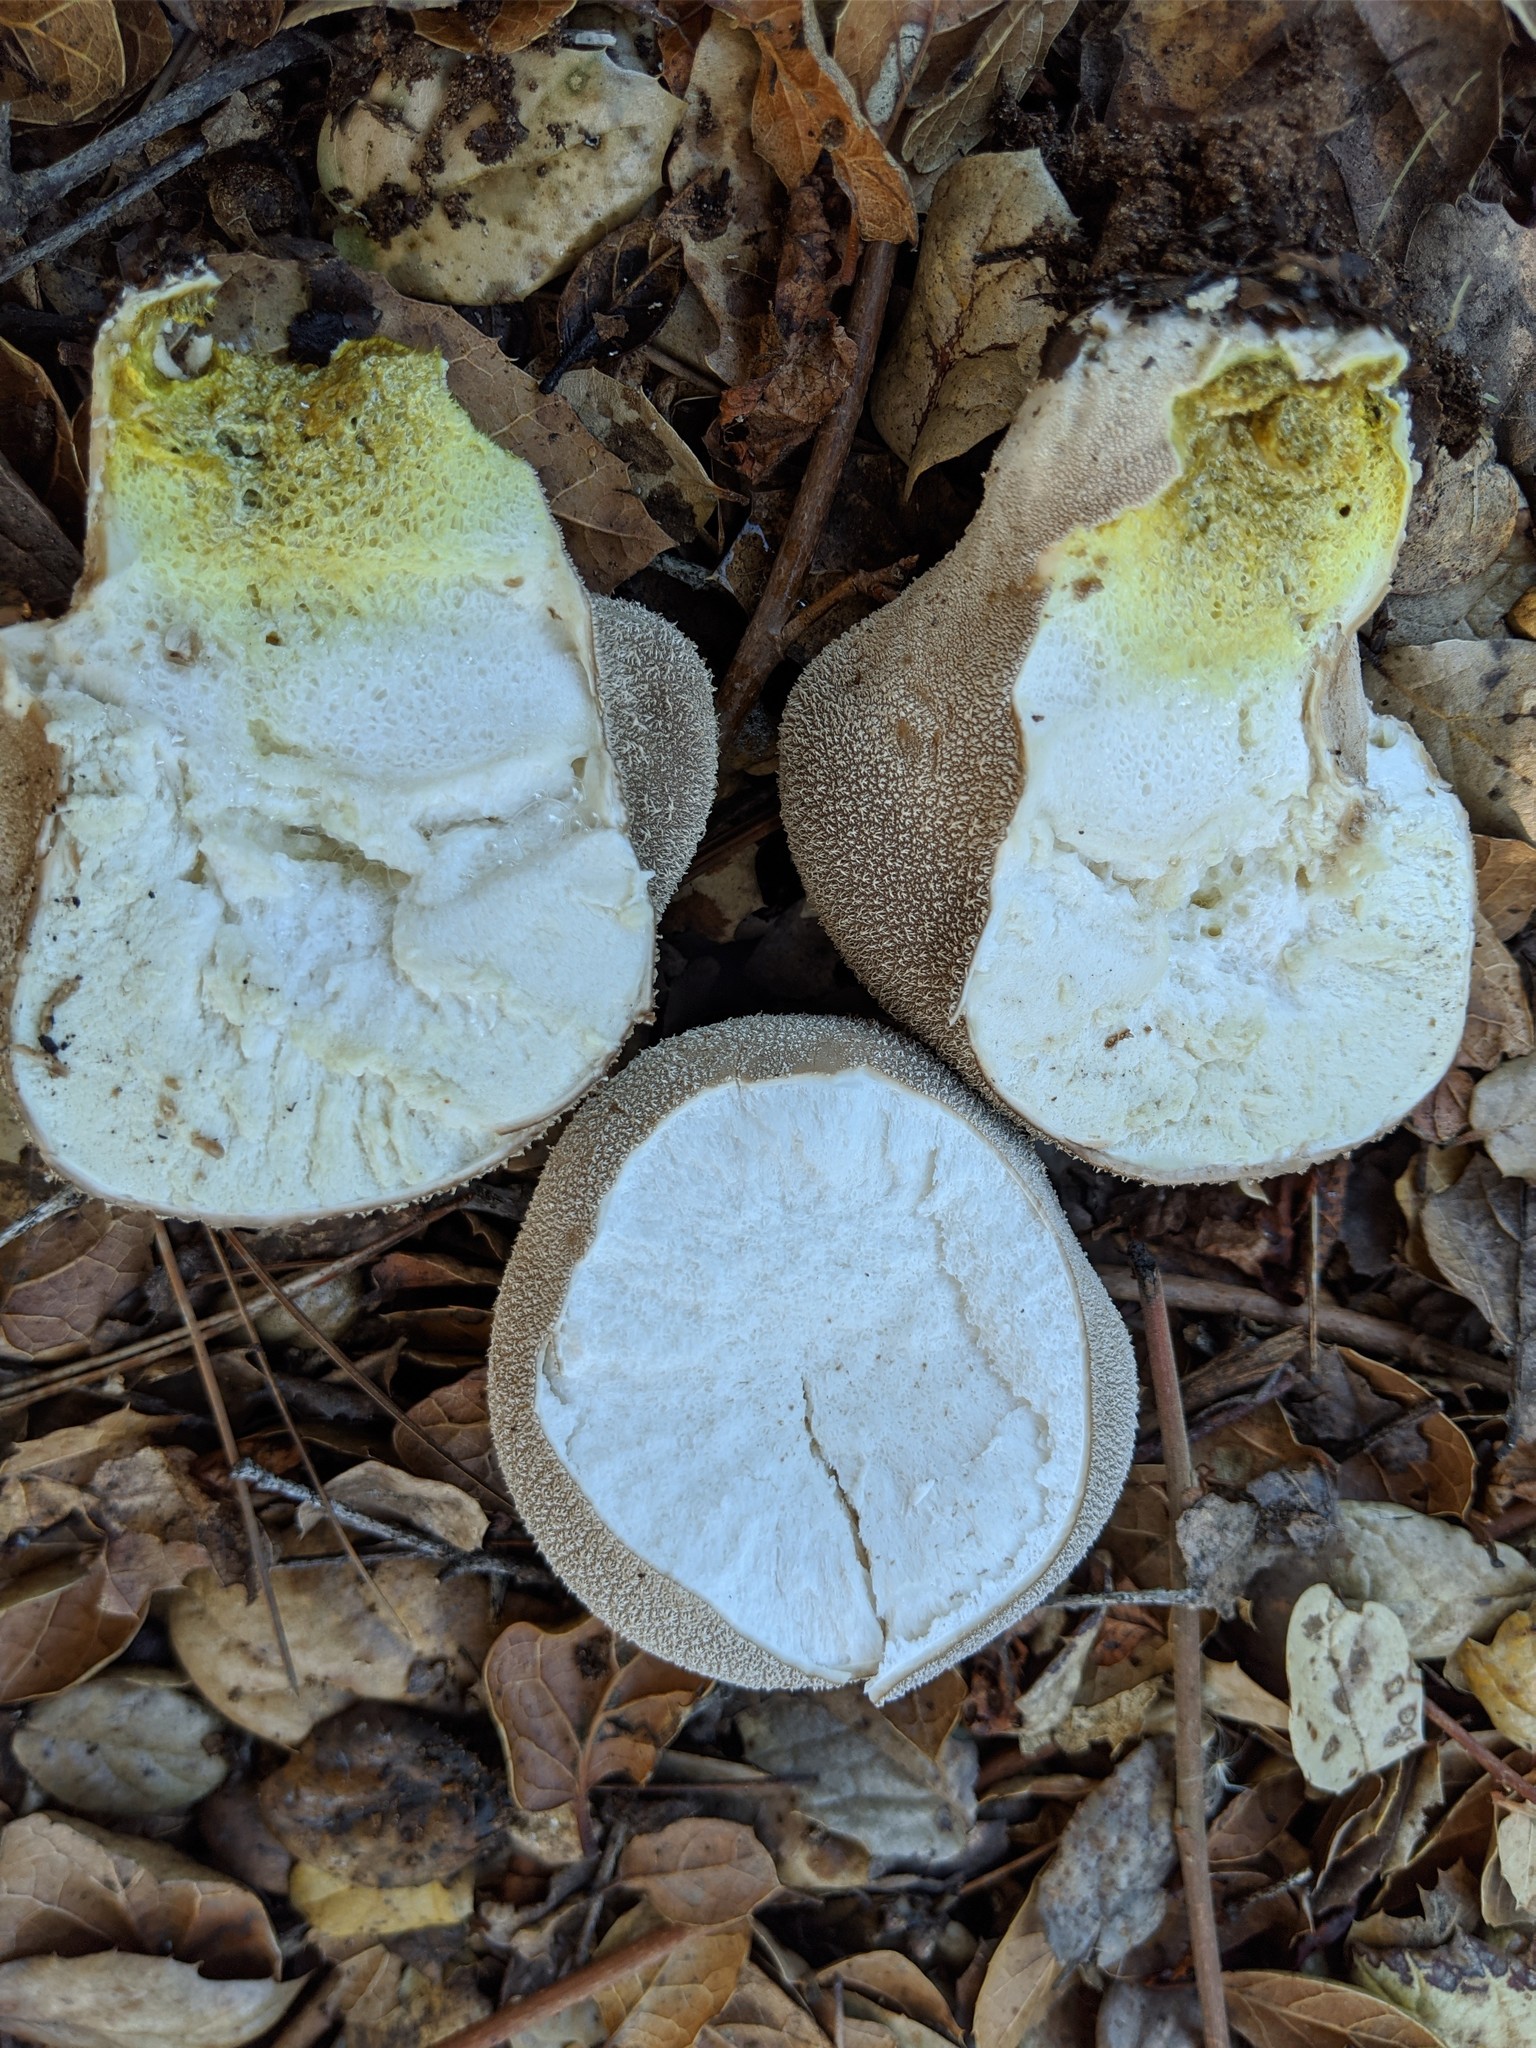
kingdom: Fungi
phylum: Basidiomycota
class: Agaricomycetes
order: Agaricales
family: Lycoperdaceae
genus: Lycoperdon
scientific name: Lycoperdon molle
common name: Soft puffball
